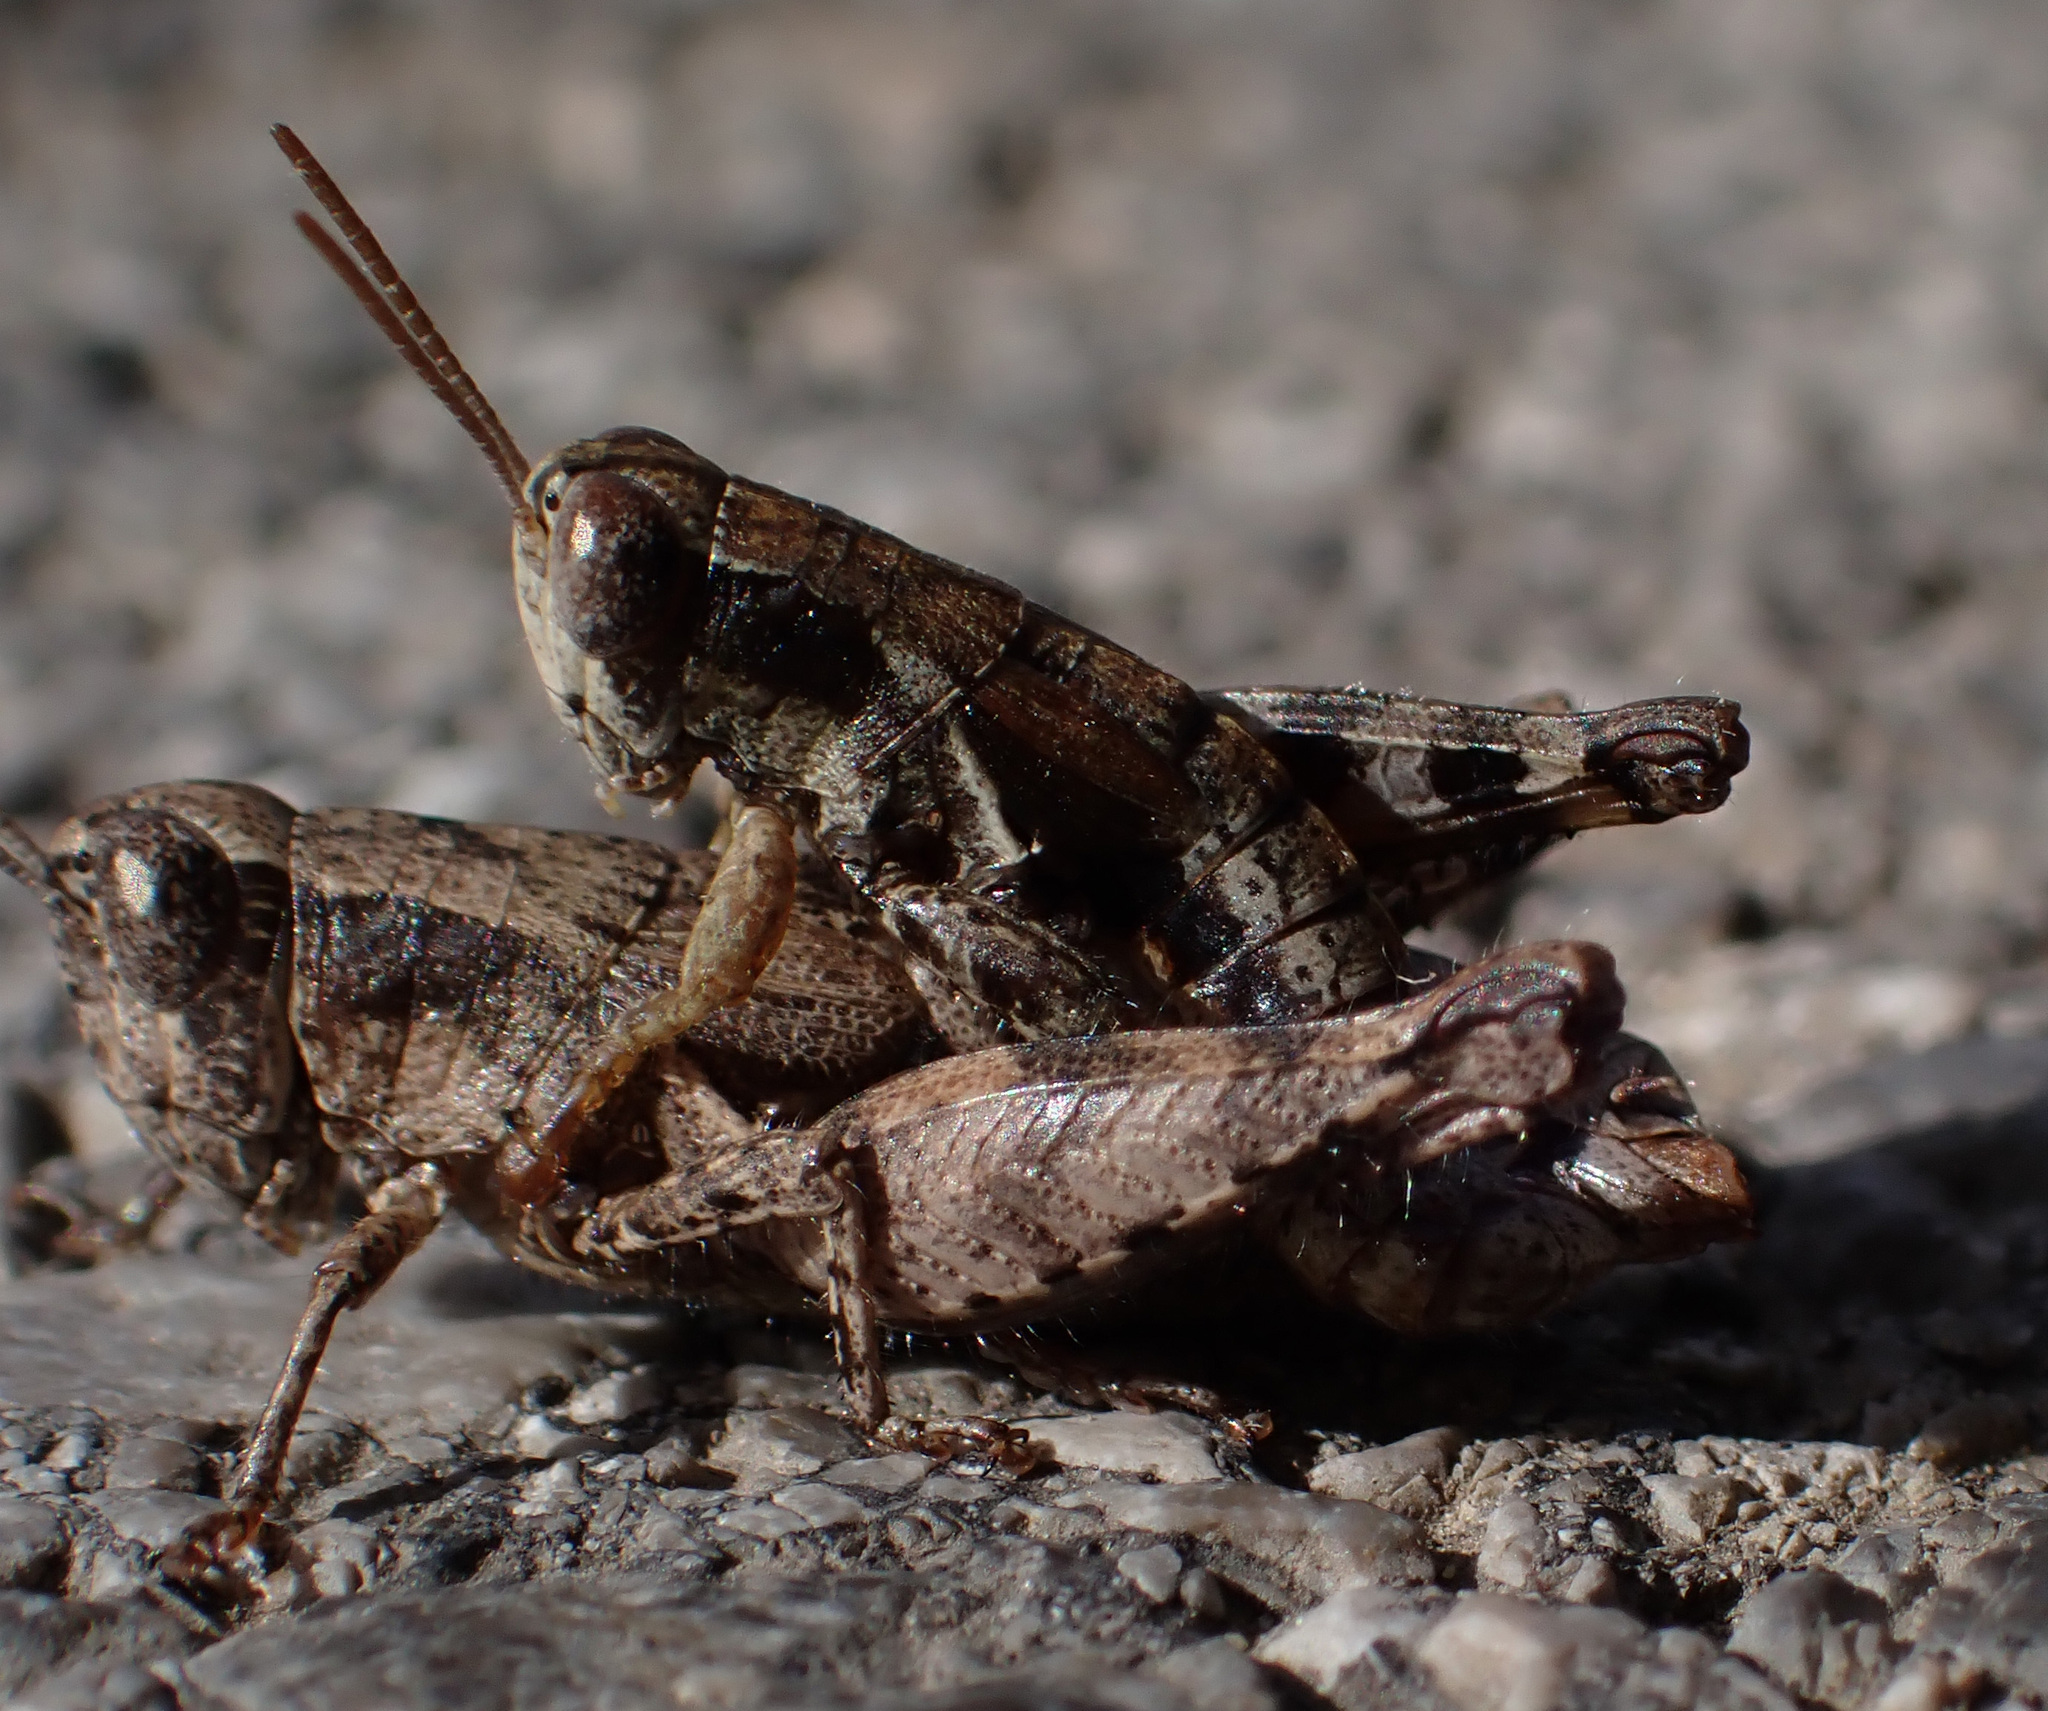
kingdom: Animalia
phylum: Arthropoda
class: Insecta
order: Orthoptera
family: Acrididae
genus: Pezotettix
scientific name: Pezotettix giornae
